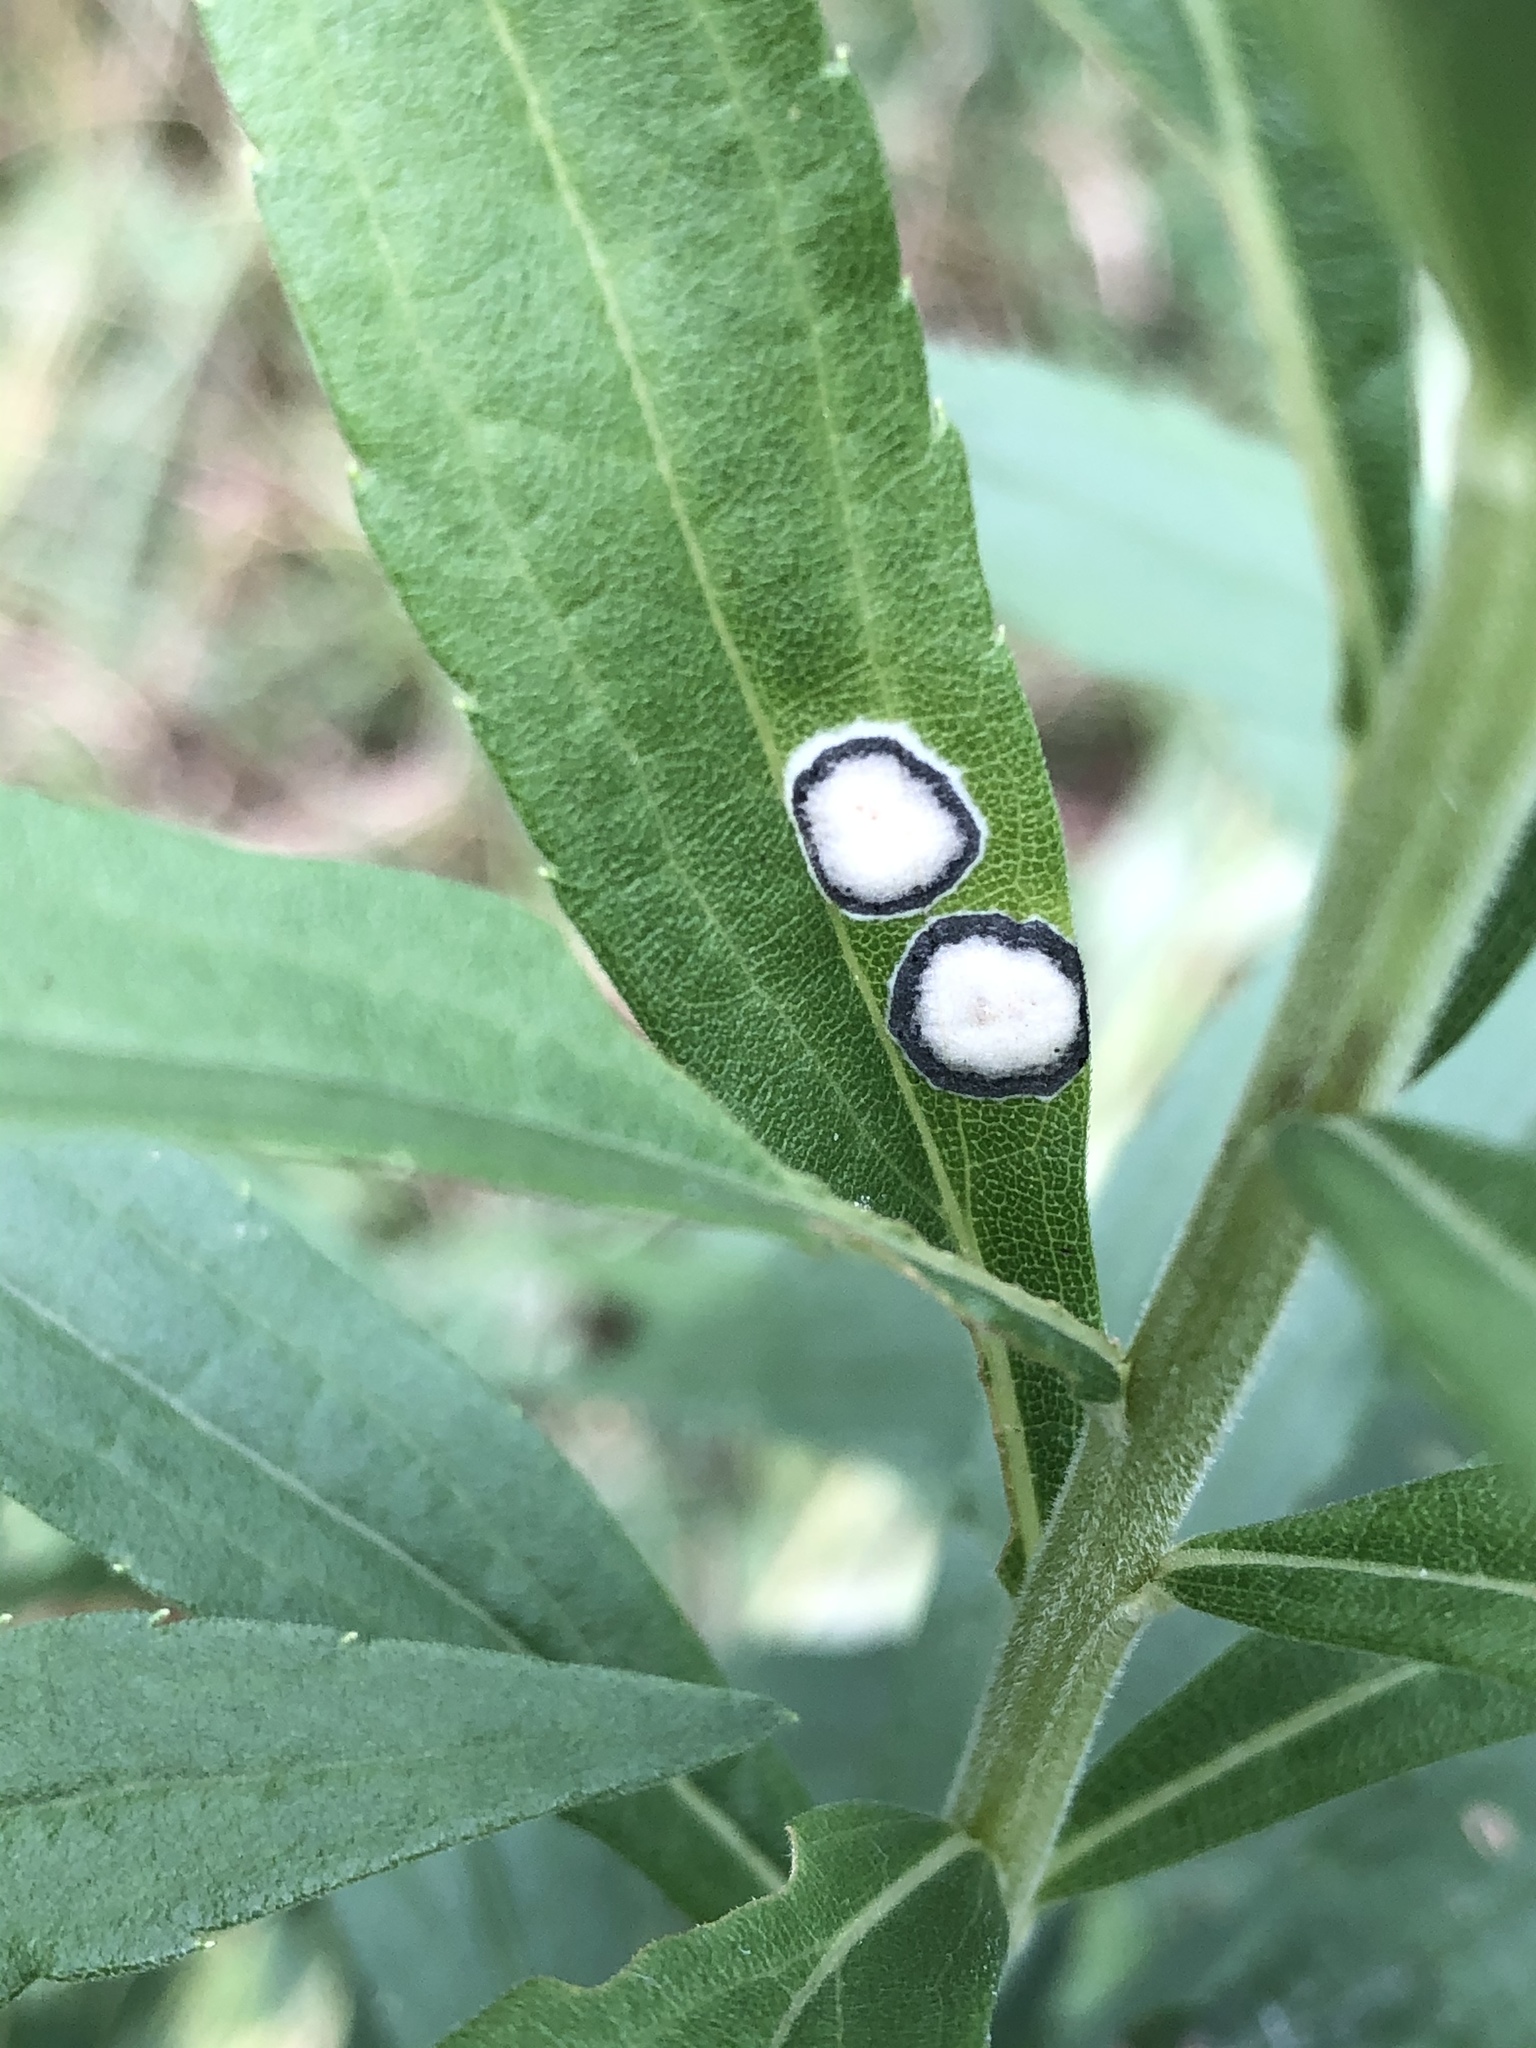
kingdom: Animalia
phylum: Arthropoda
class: Insecta
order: Diptera
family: Cecidomyiidae
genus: Asteromyia
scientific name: Asteromyia carbonifera
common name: Carbonifera goldenrod gall midge
